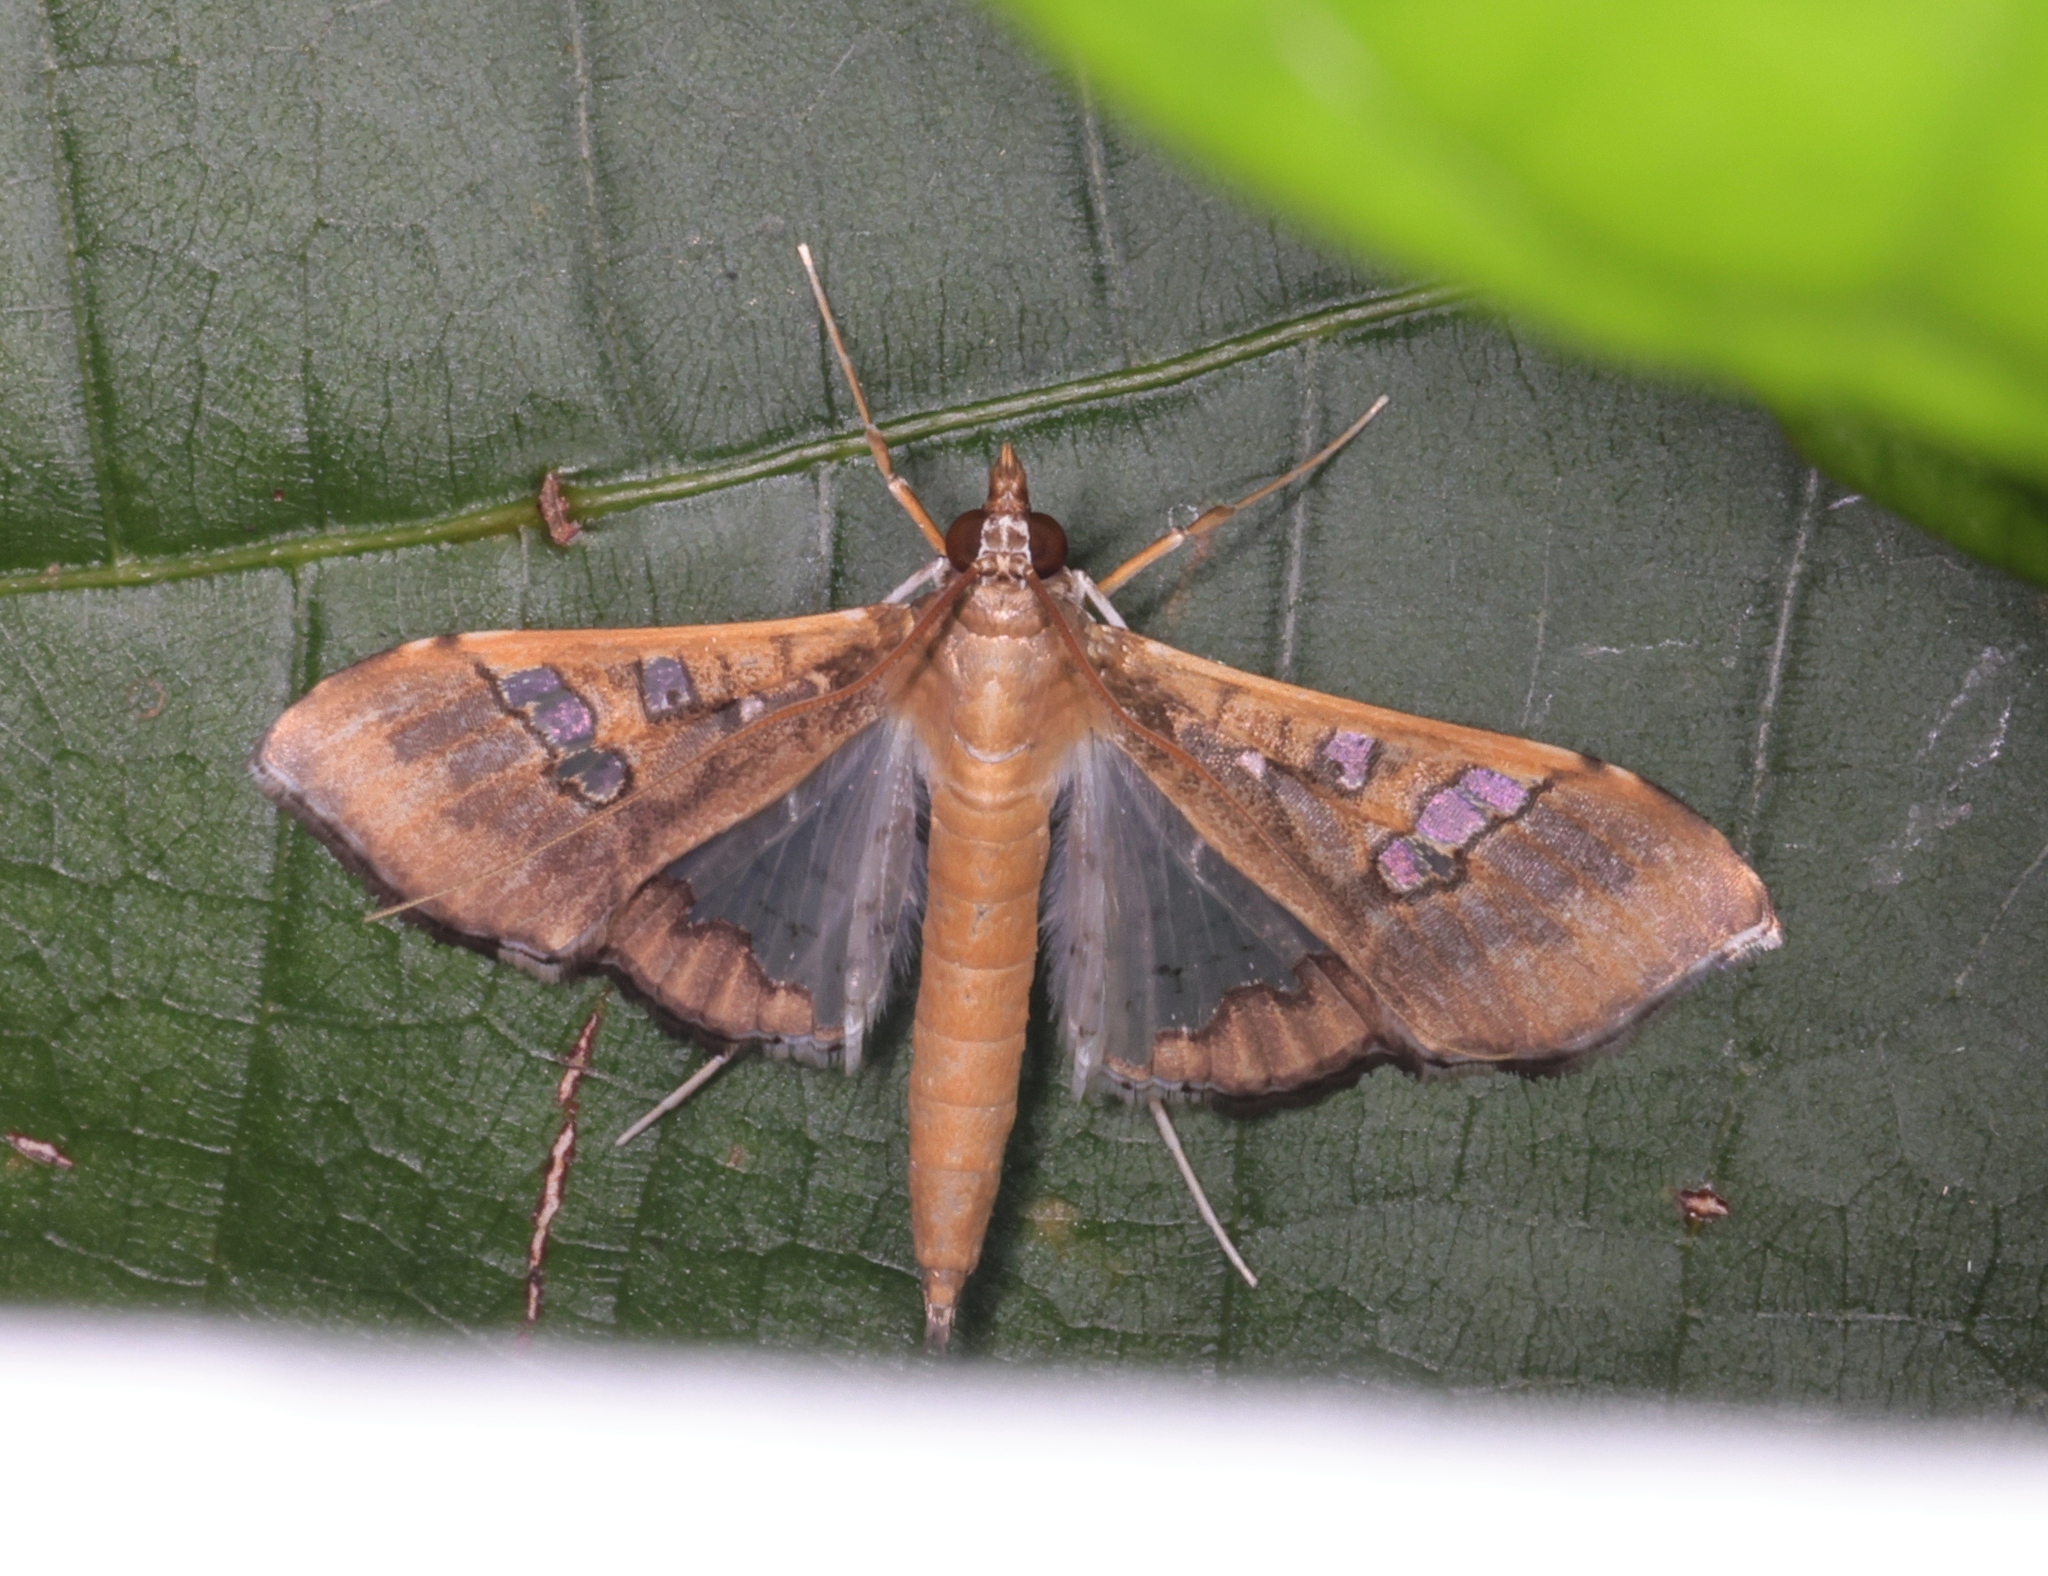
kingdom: Animalia
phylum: Arthropoda
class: Insecta
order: Lepidoptera
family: Crambidae
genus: Maruca
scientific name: Maruca vitrata
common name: Maruca pod borer
